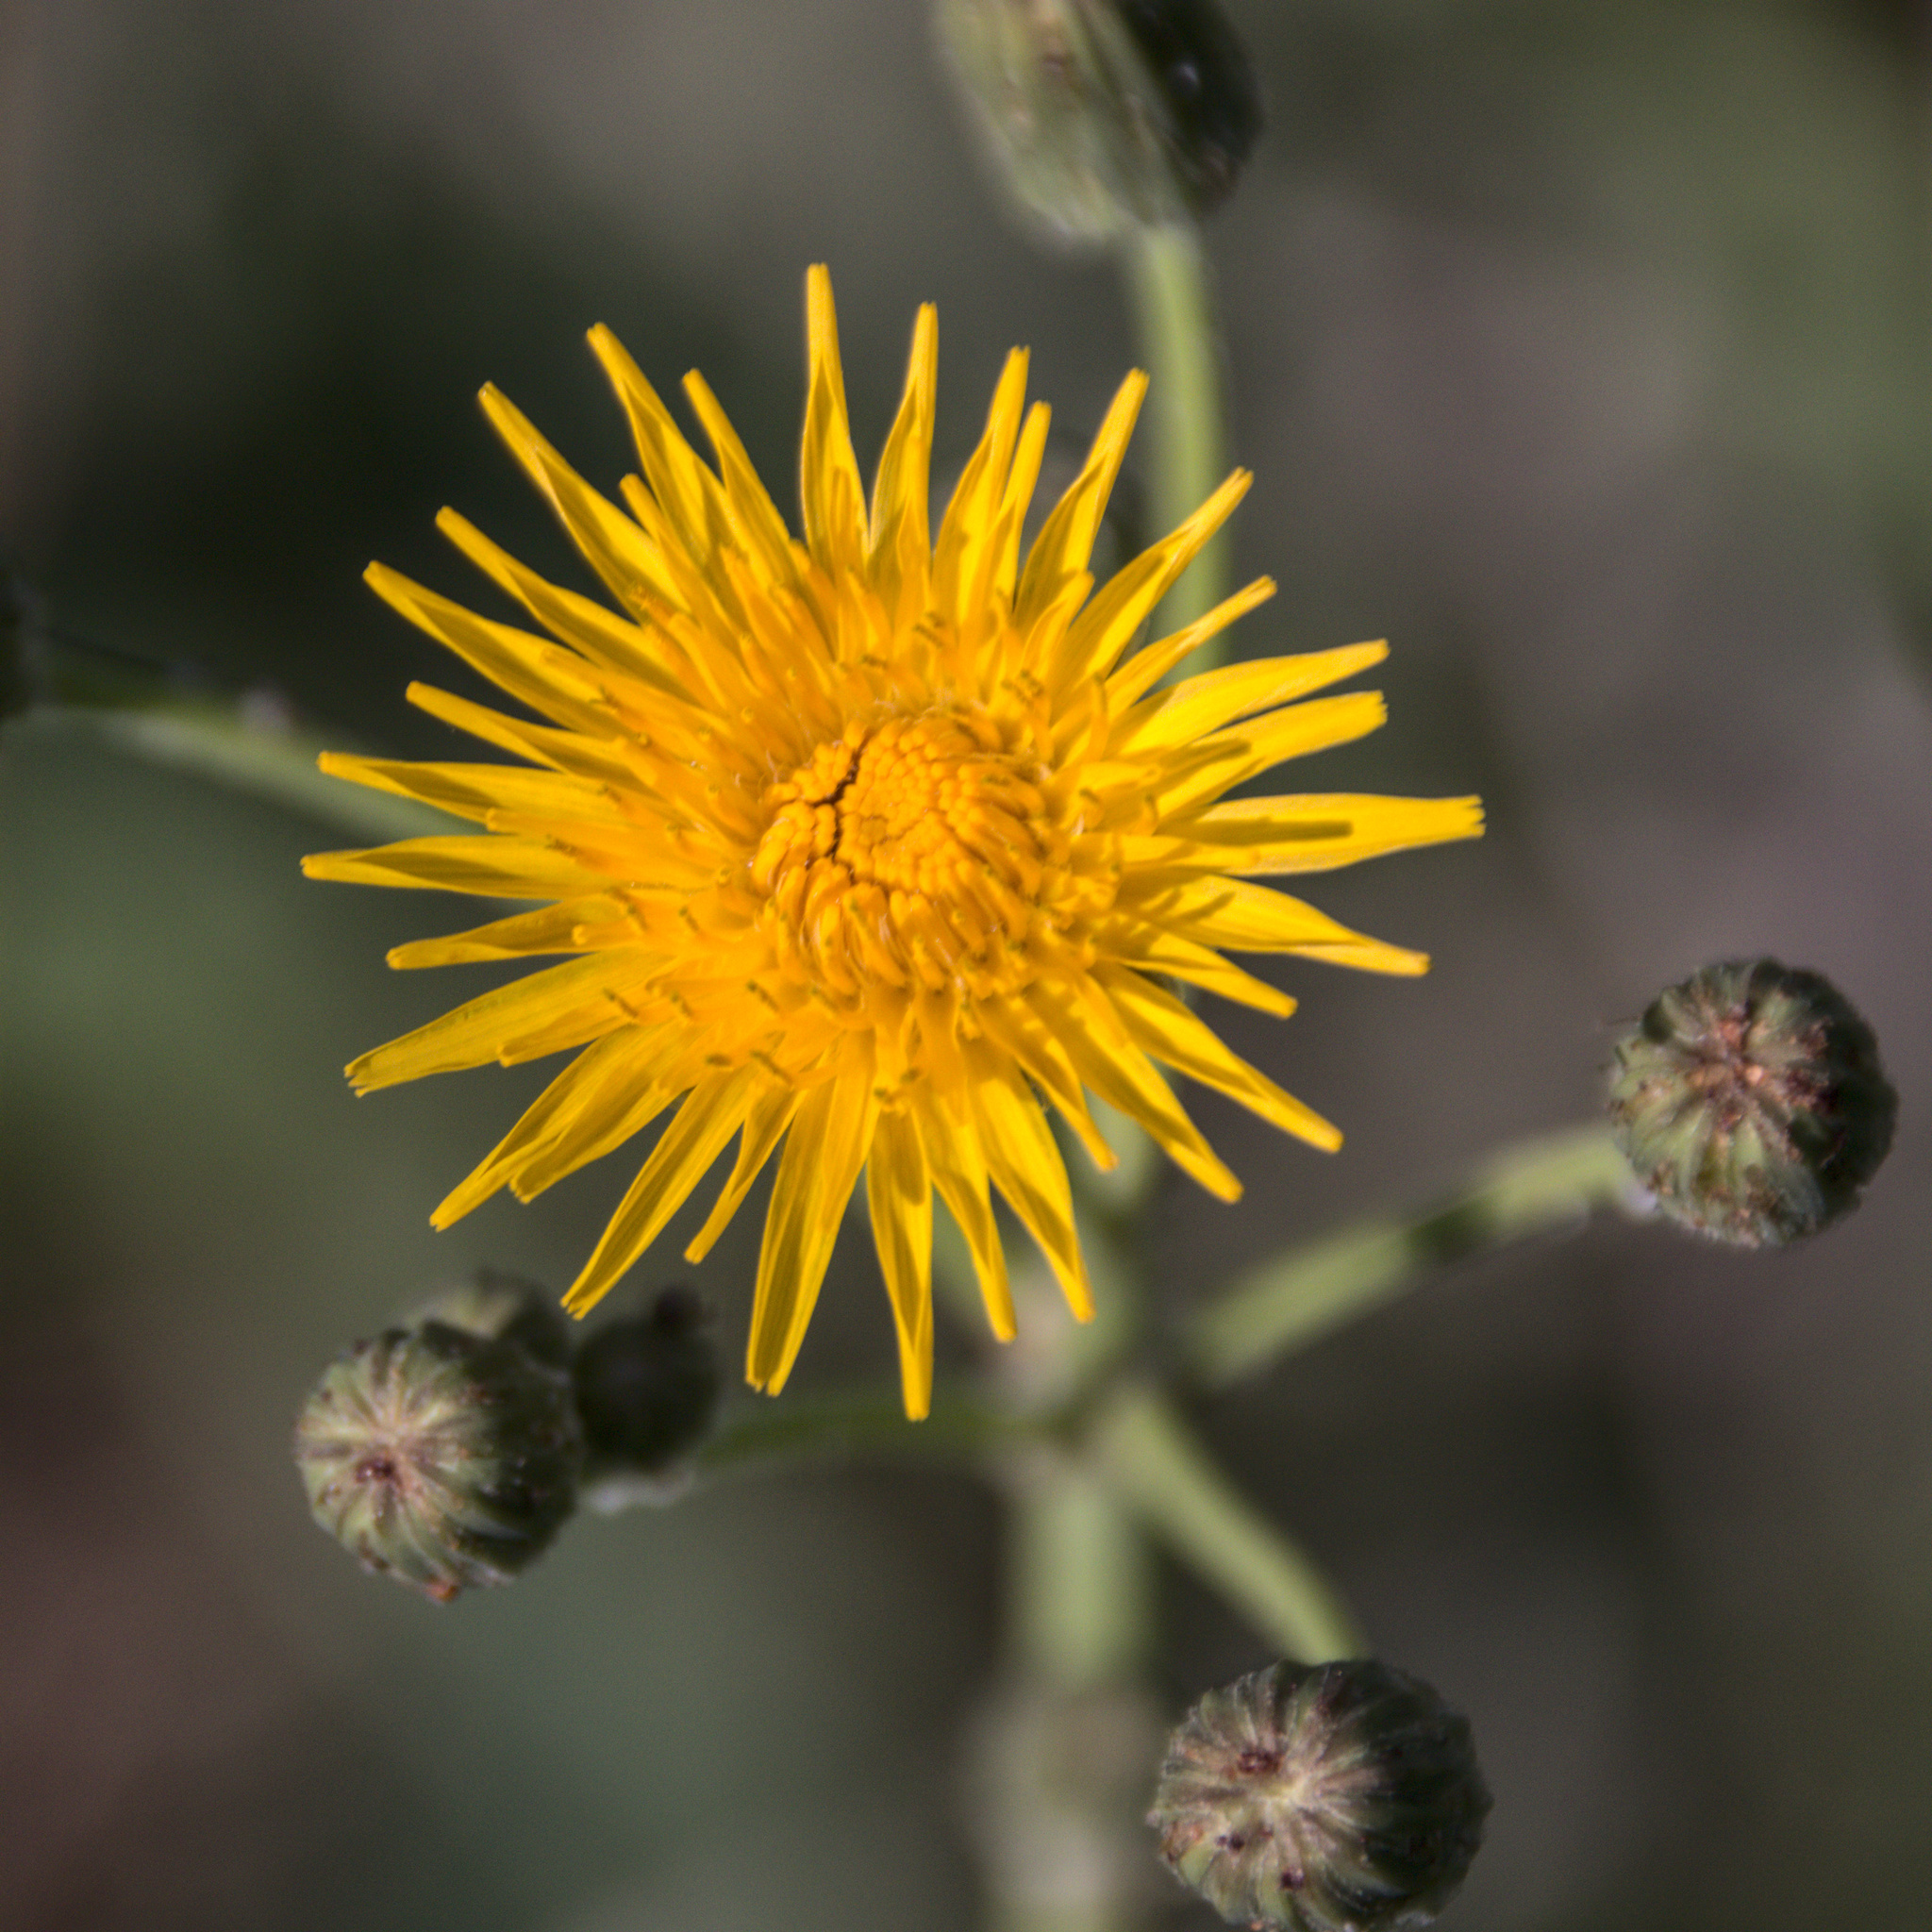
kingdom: Plantae
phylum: Tracheophyta
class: Magnoliopsida
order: Asterales
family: Asteraceae
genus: Sonchus
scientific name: Sonchus arvensis
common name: Perennial sow-thistle
